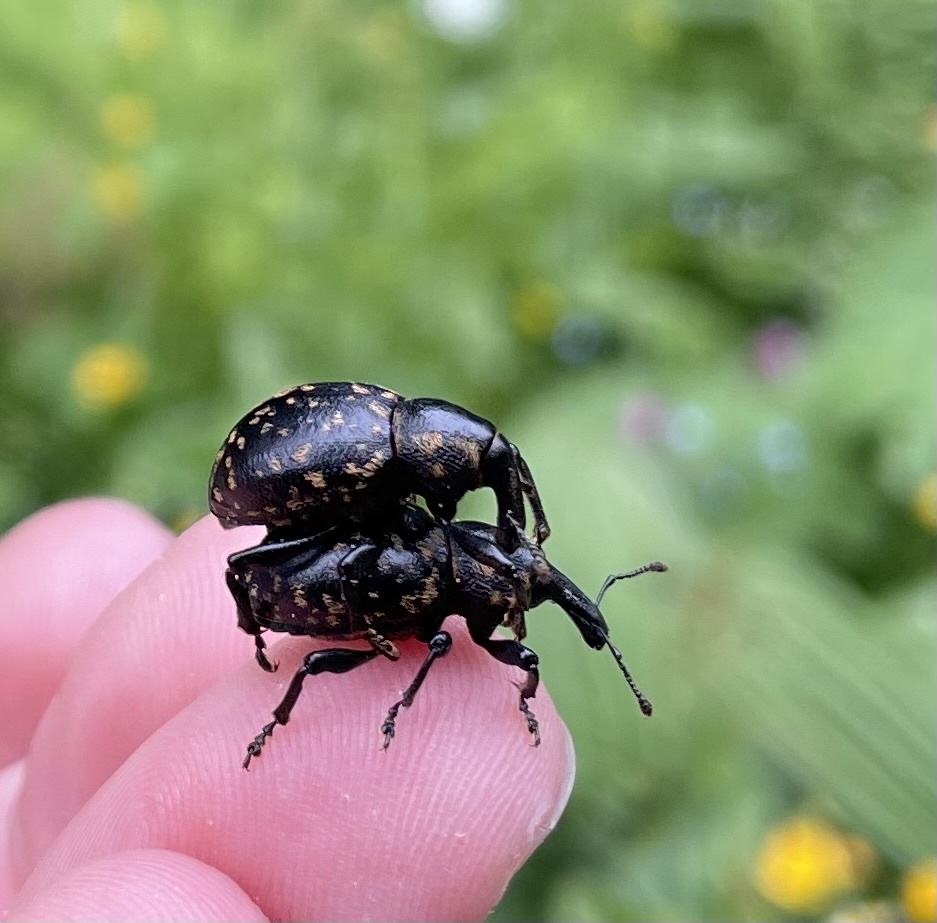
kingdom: Animalia
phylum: Arthropoda
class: Insecta
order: Coleoptera
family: Curculionidae
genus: Liparus
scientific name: Liparus germanus
